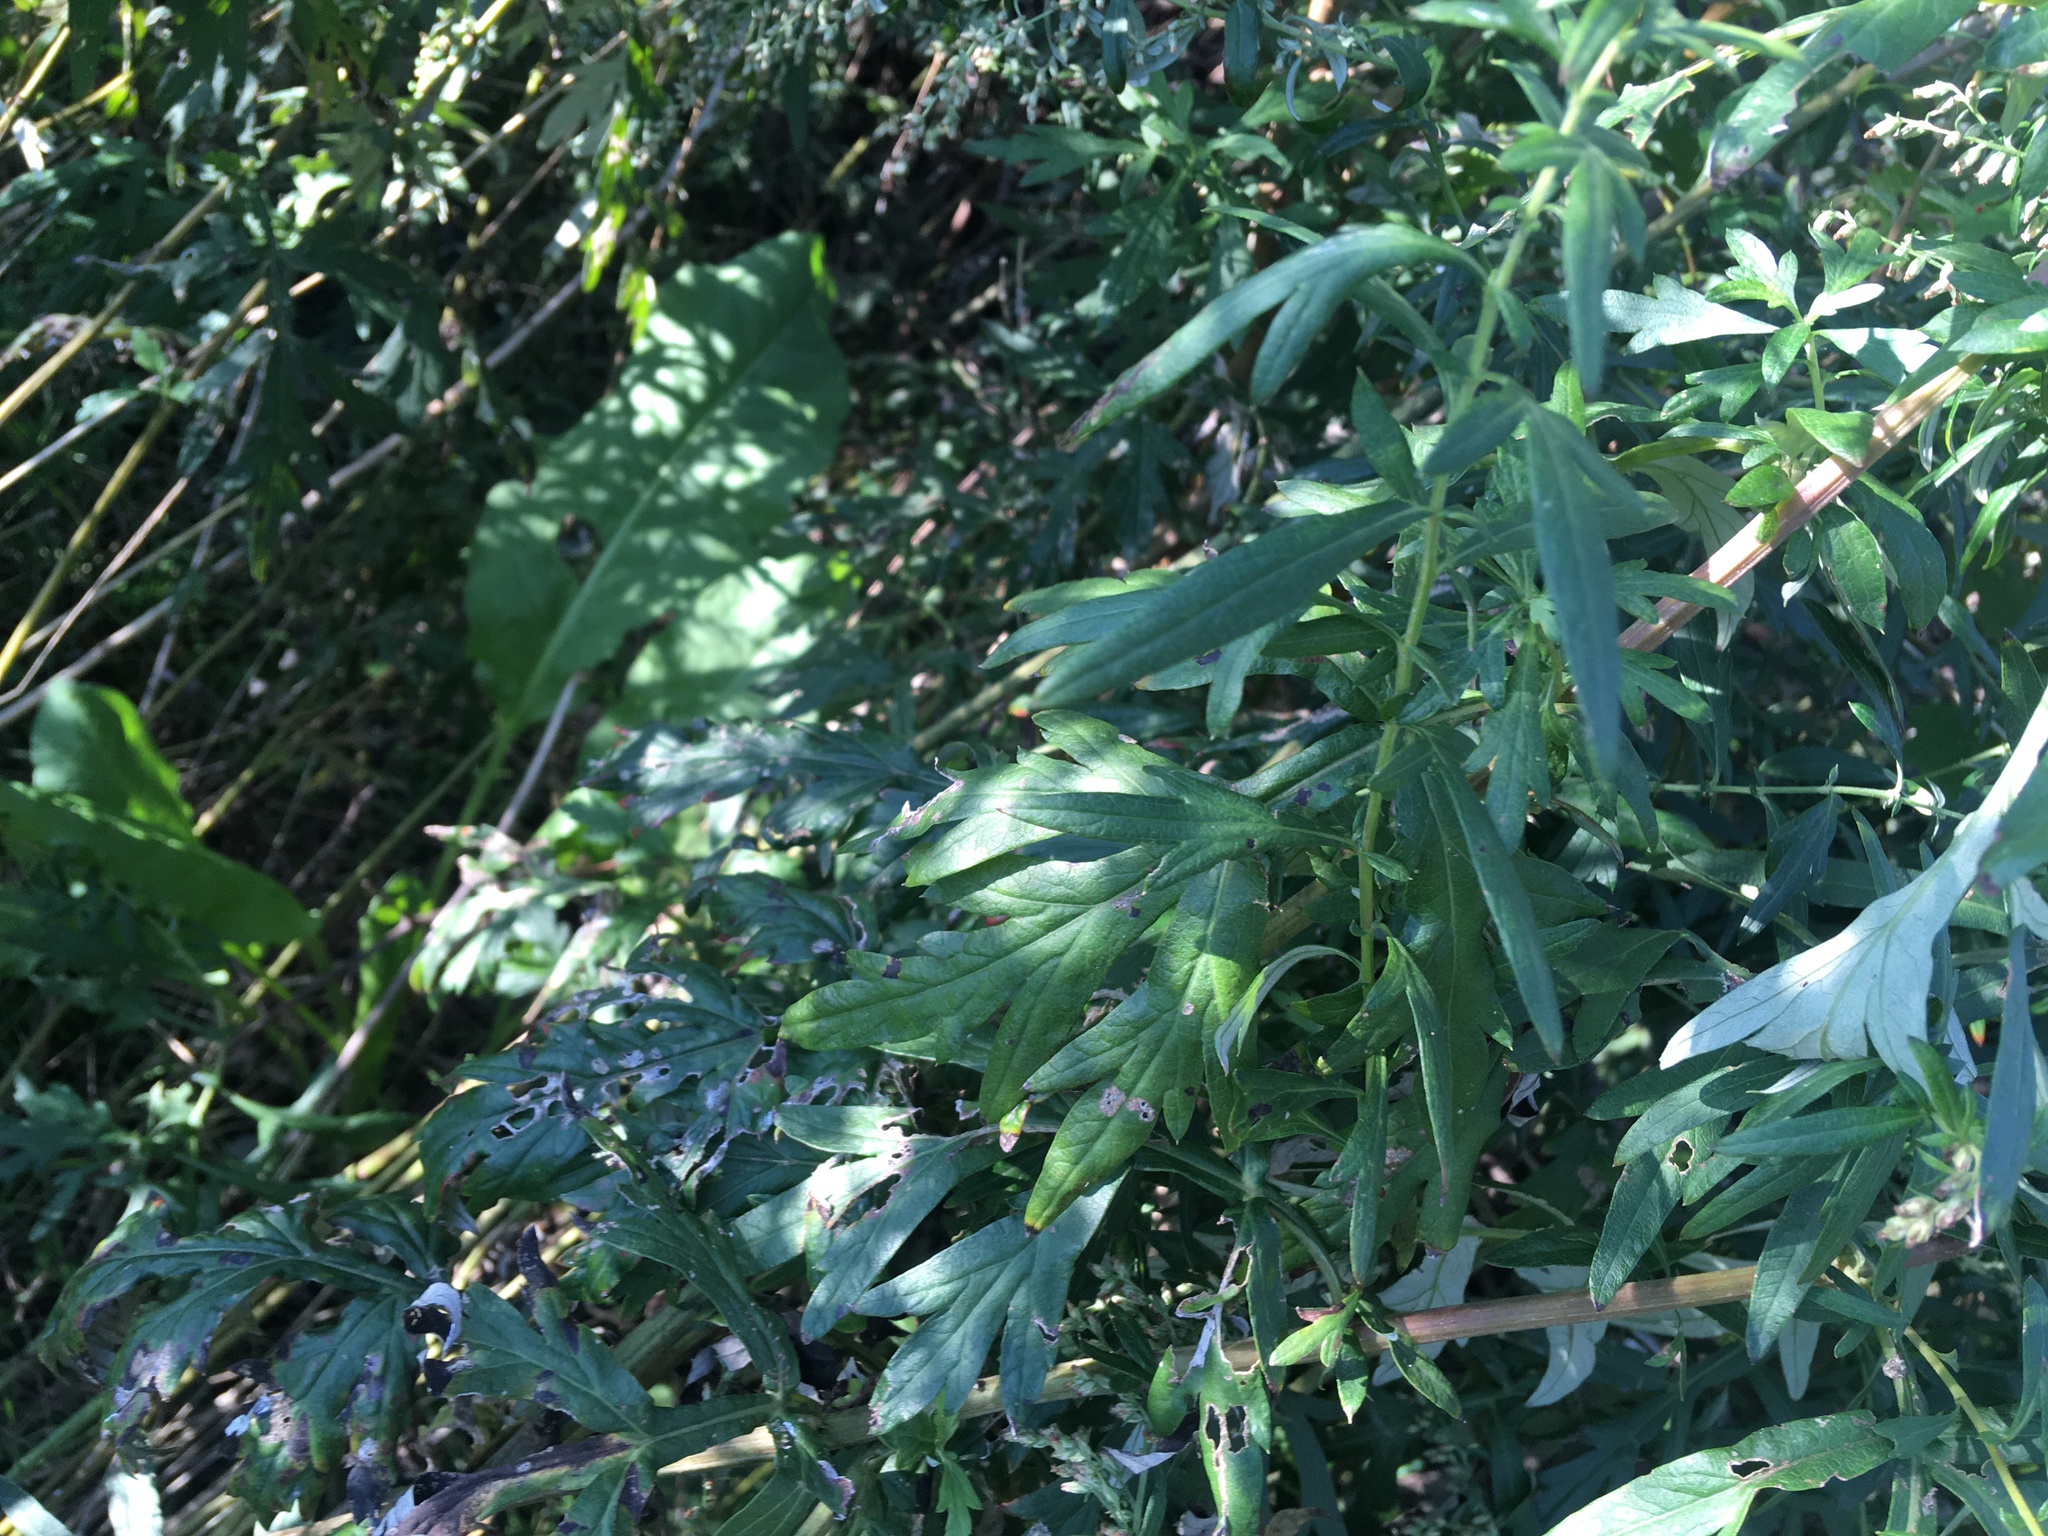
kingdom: Plantae
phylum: Tracheophyta
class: Magnoliopsida
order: Asterales
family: Asteraceae
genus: Artemisia
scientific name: Artemisia vulgaris
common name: Mugwort
